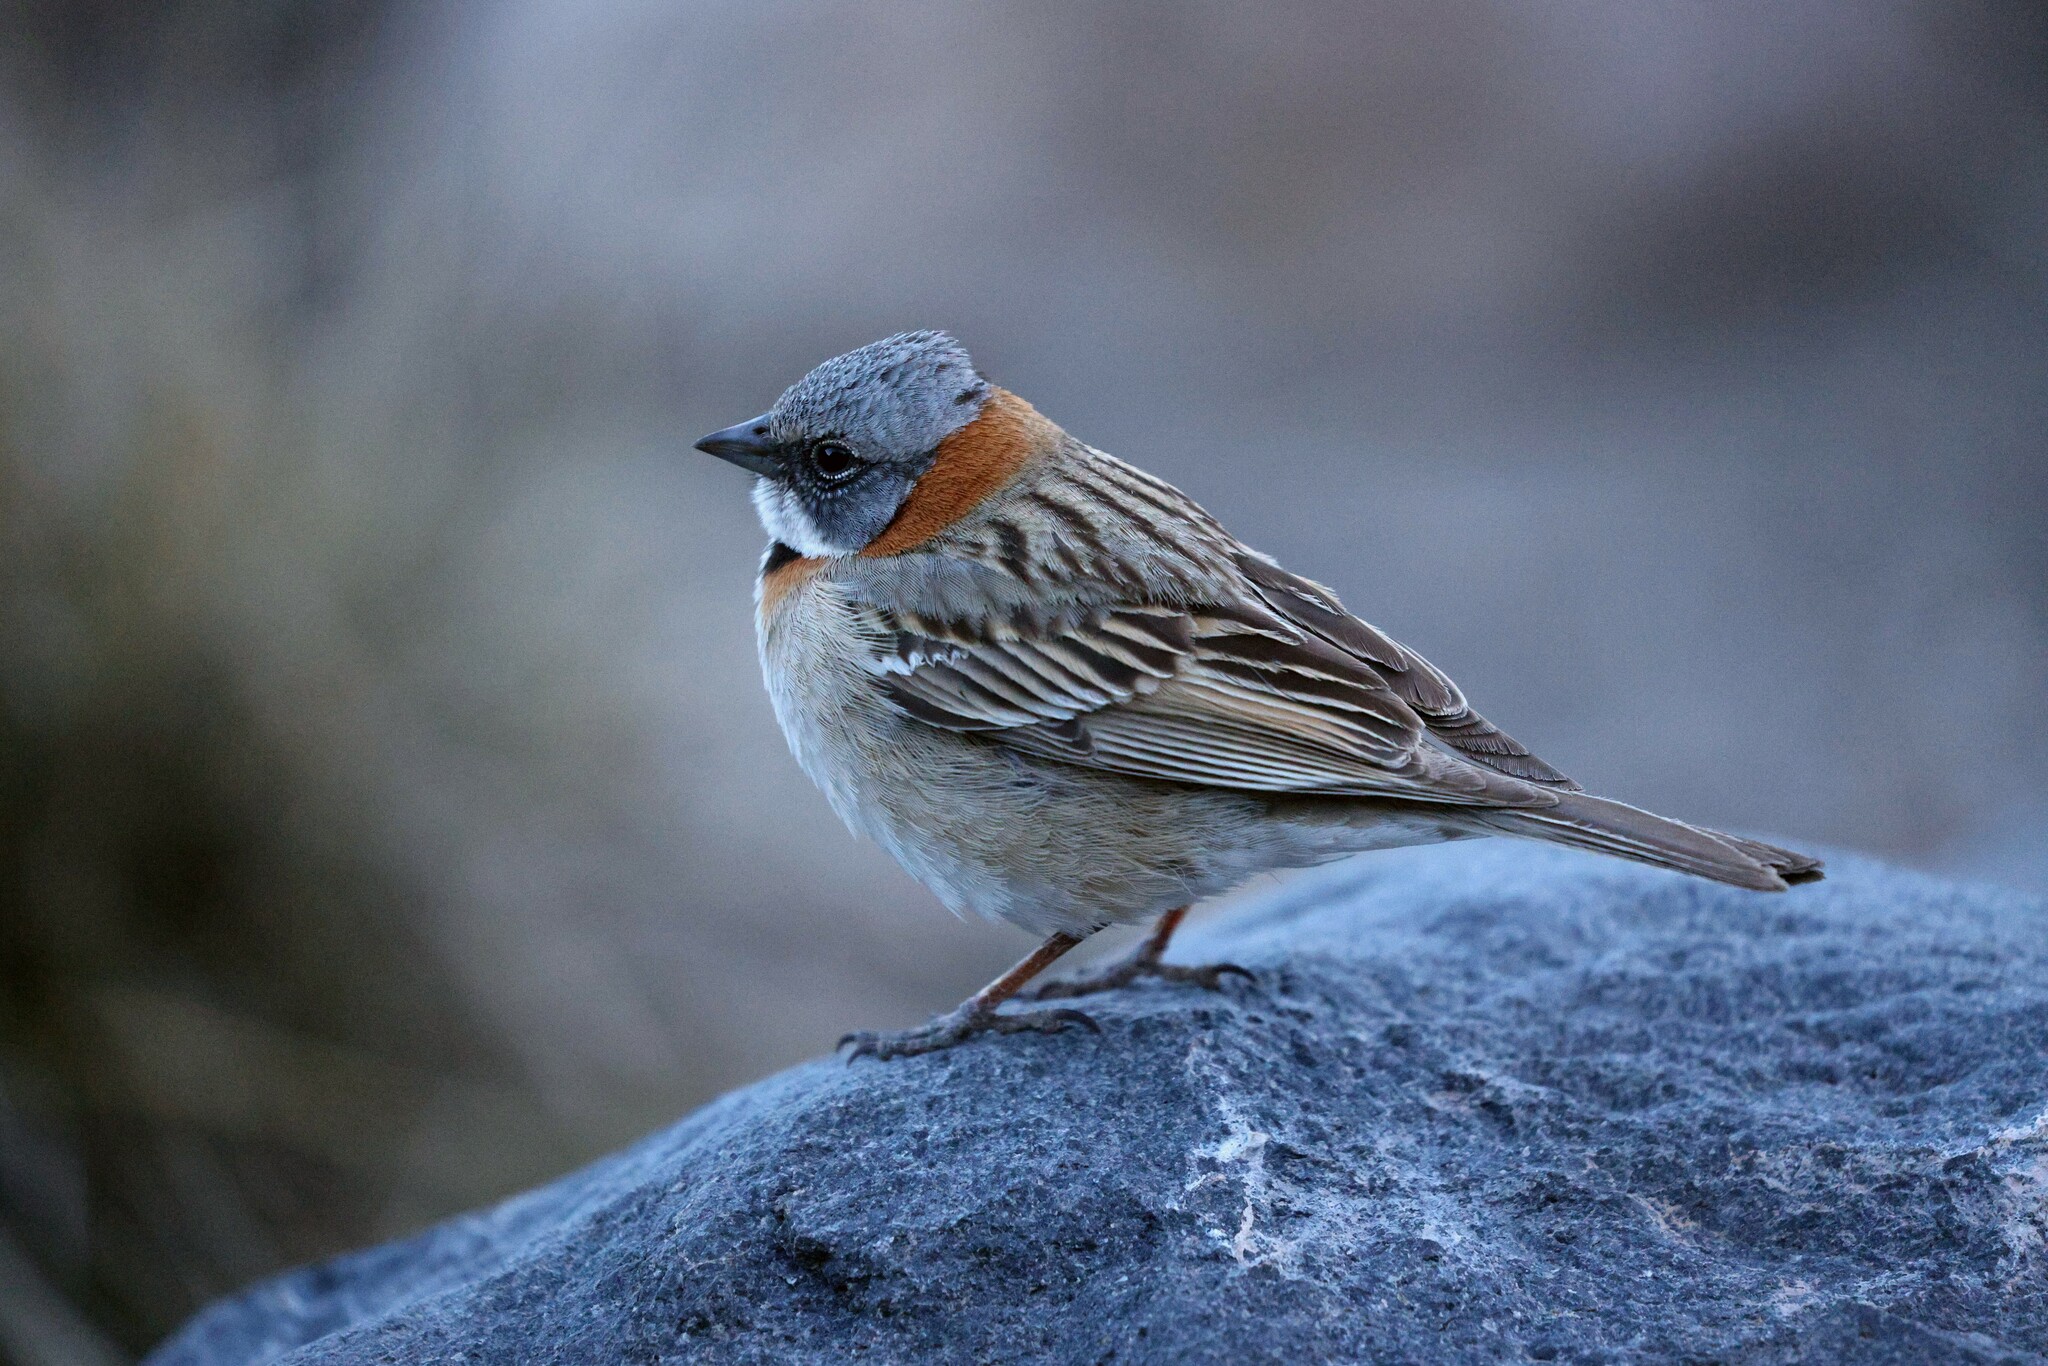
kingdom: Animalia
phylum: Chordata
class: Aves
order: Passeriformes
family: Passerellidae
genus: Zonotrichia
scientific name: Zonotrichia capensis
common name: Rufous-collared sparrow
